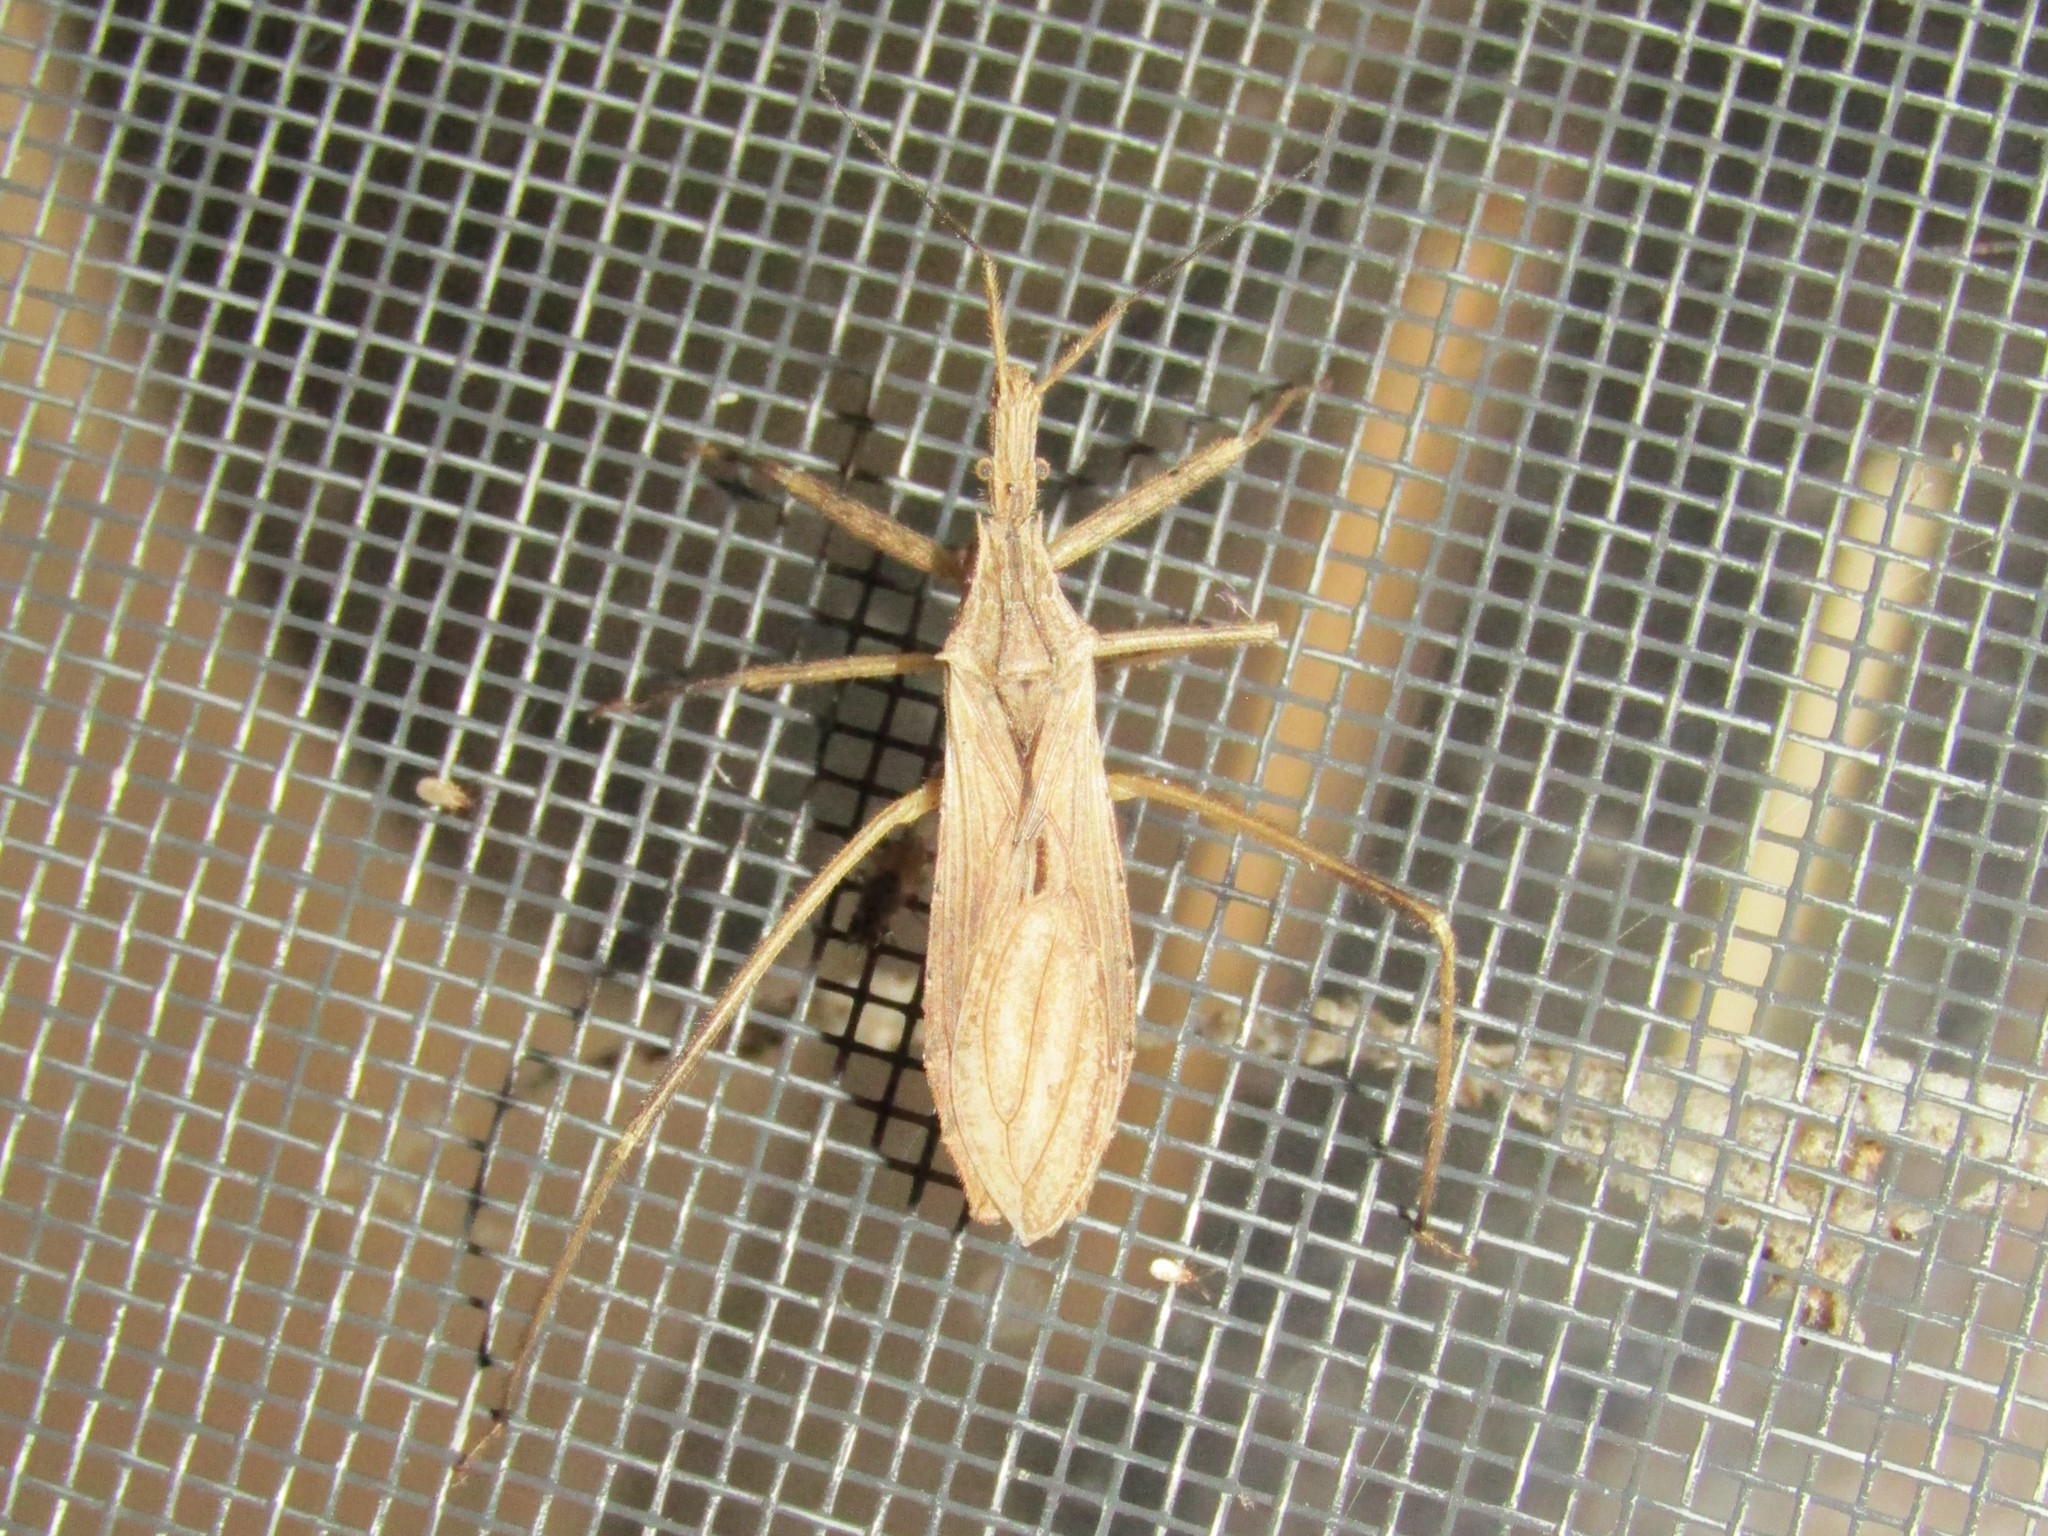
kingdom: Animalia
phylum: Arthropoda
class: Insecta
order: Hemiptera
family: Reduviidae
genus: Stenopoda
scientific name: Stenopoda spinulosa
